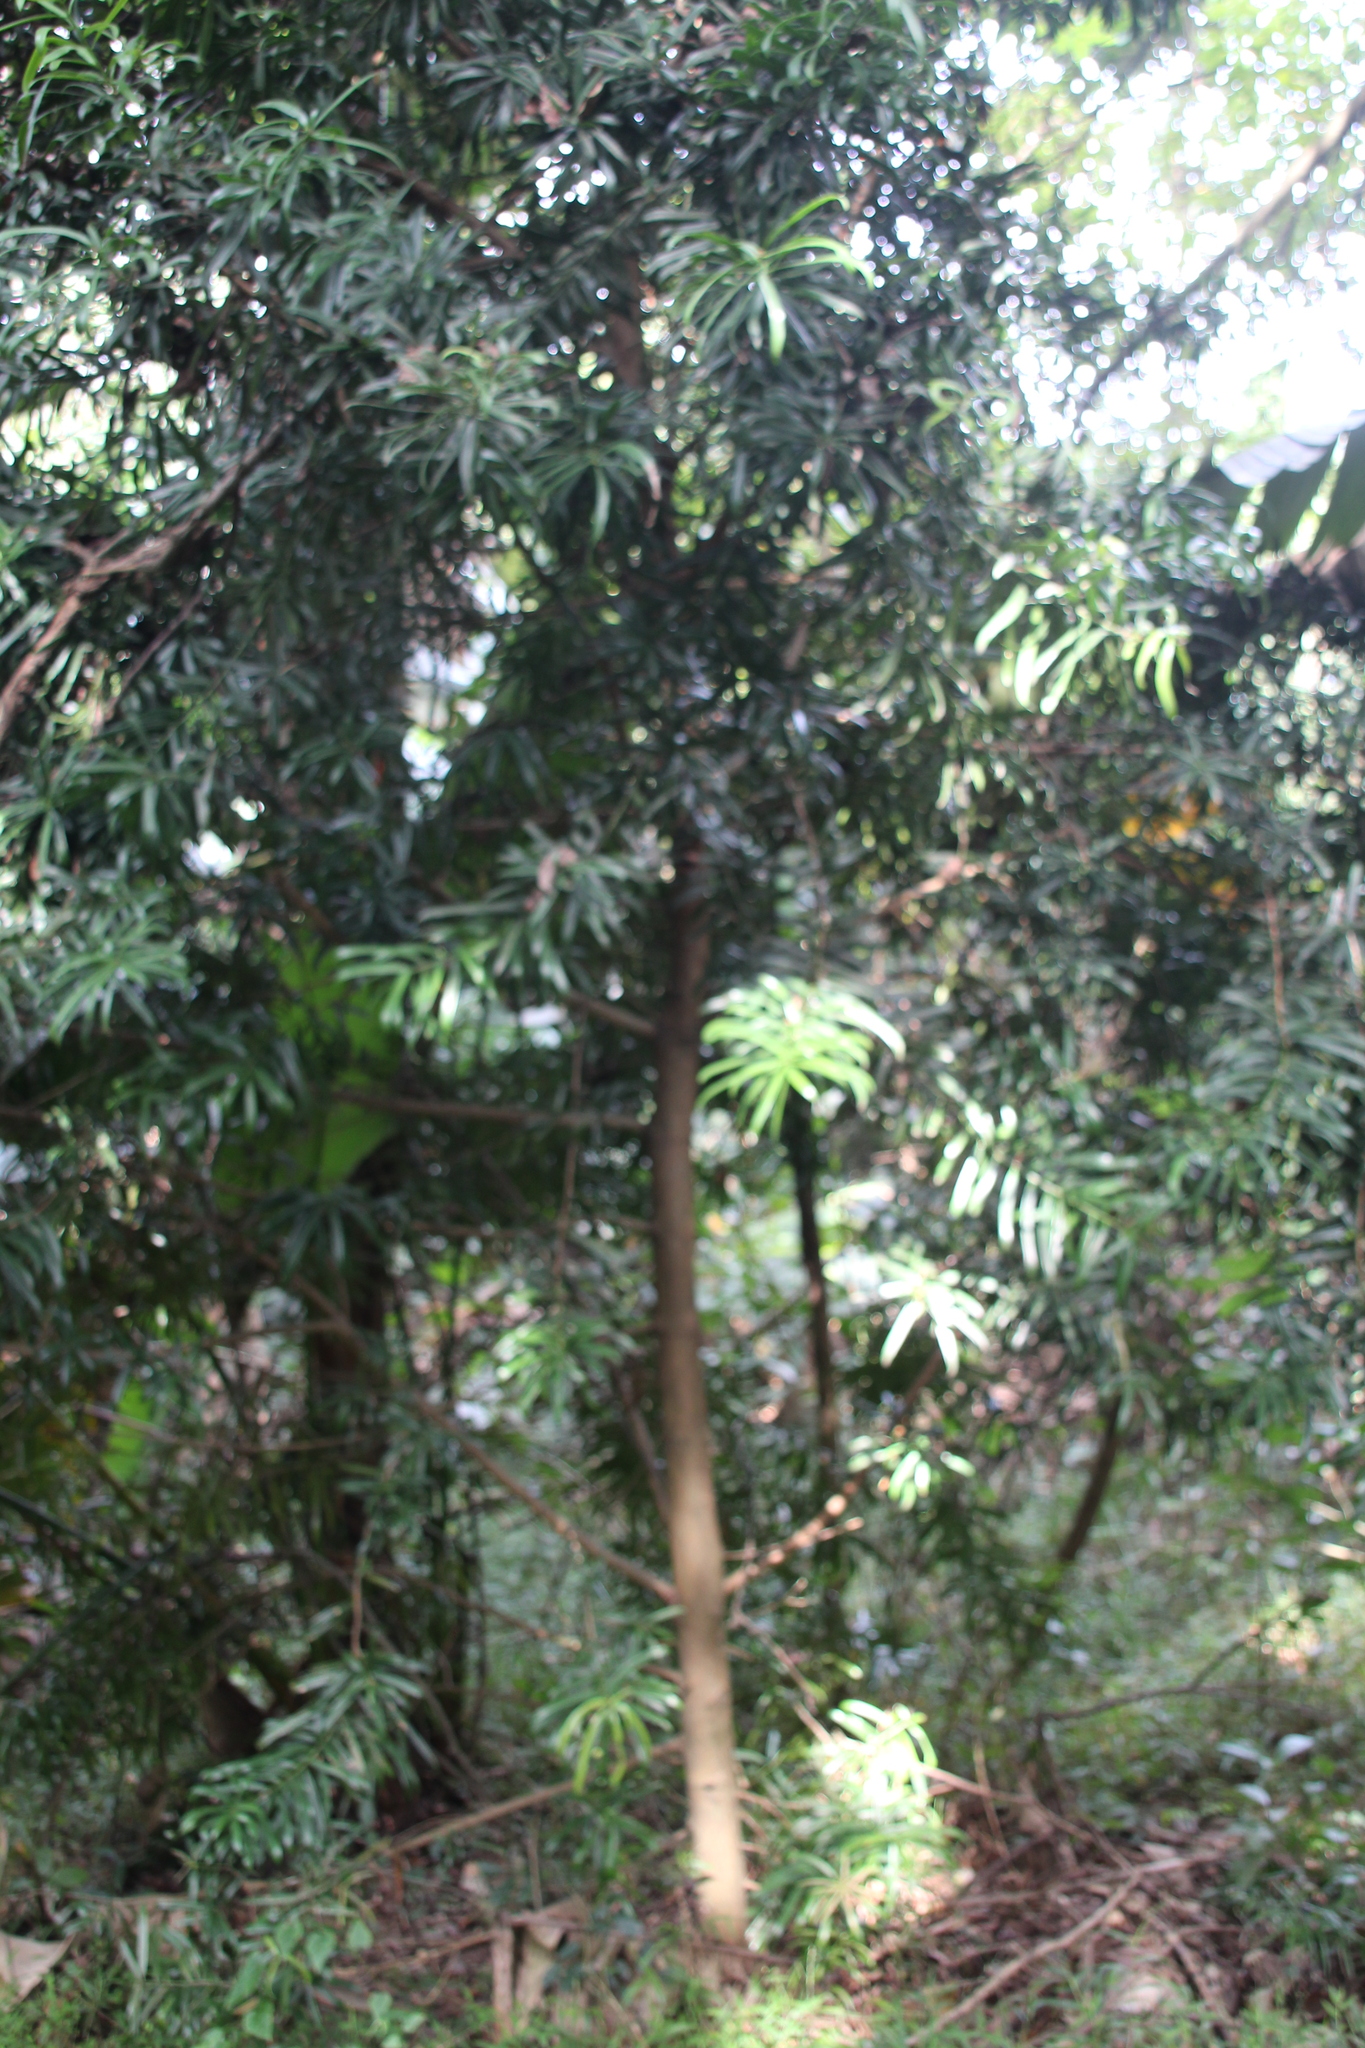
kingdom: Plantae
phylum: Tracheophyta
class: Pinopsida
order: Pinales
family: Podocarpaceae
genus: Podocarpus
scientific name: Podocarpus latifolius
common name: True yellowwood
